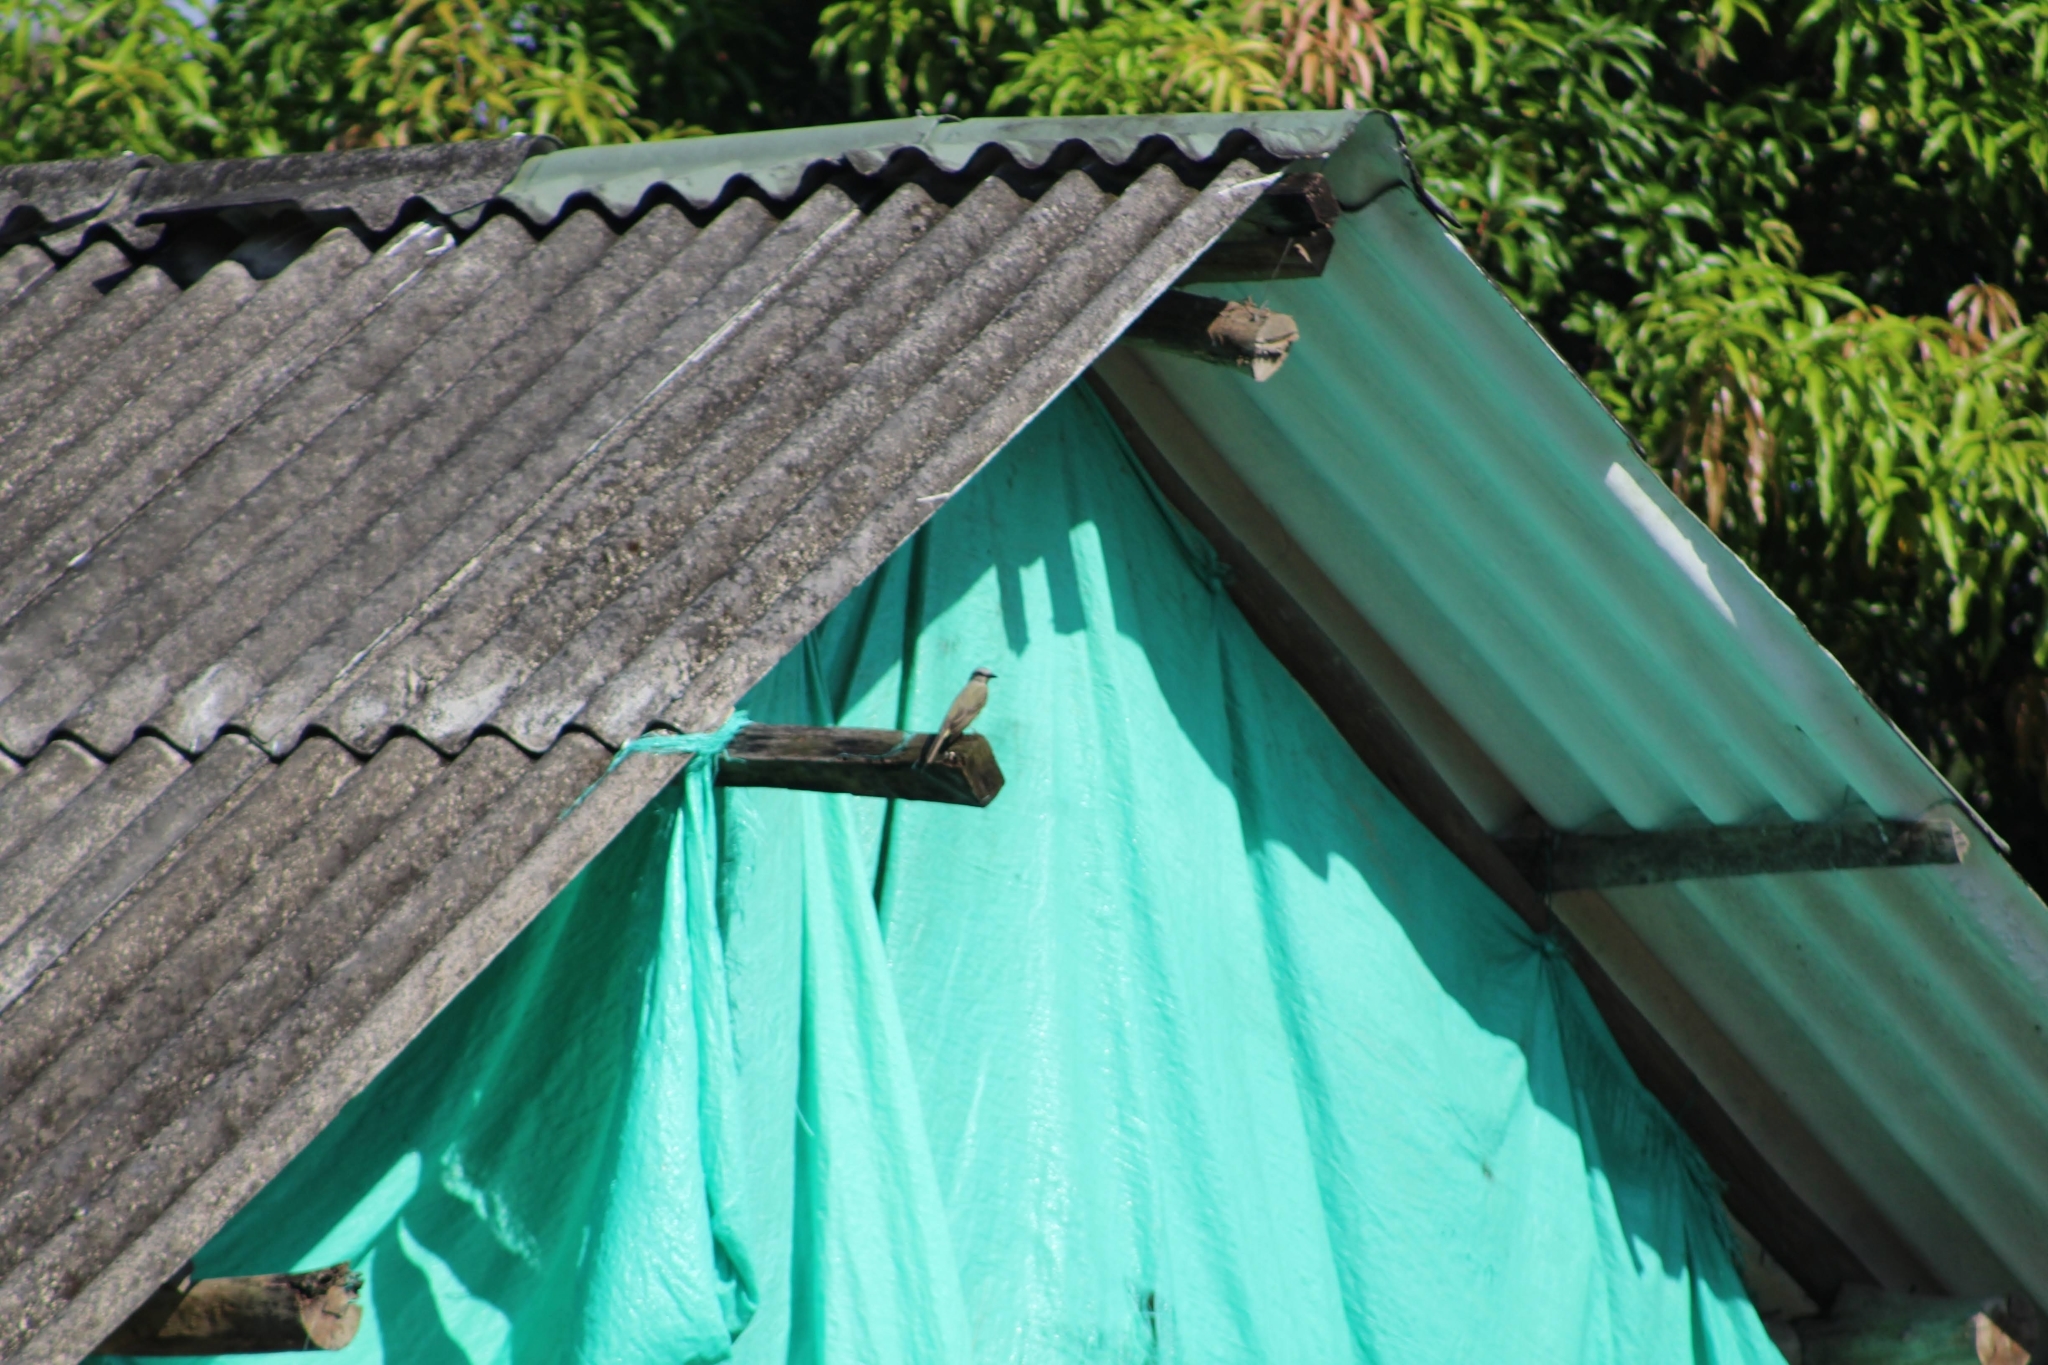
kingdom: Animalia
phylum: Chordata
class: Aves
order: Passeriformes
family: Tyrannidae
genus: Tyrannus
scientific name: Tyrannus melancholicus
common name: Tropical kingbird
